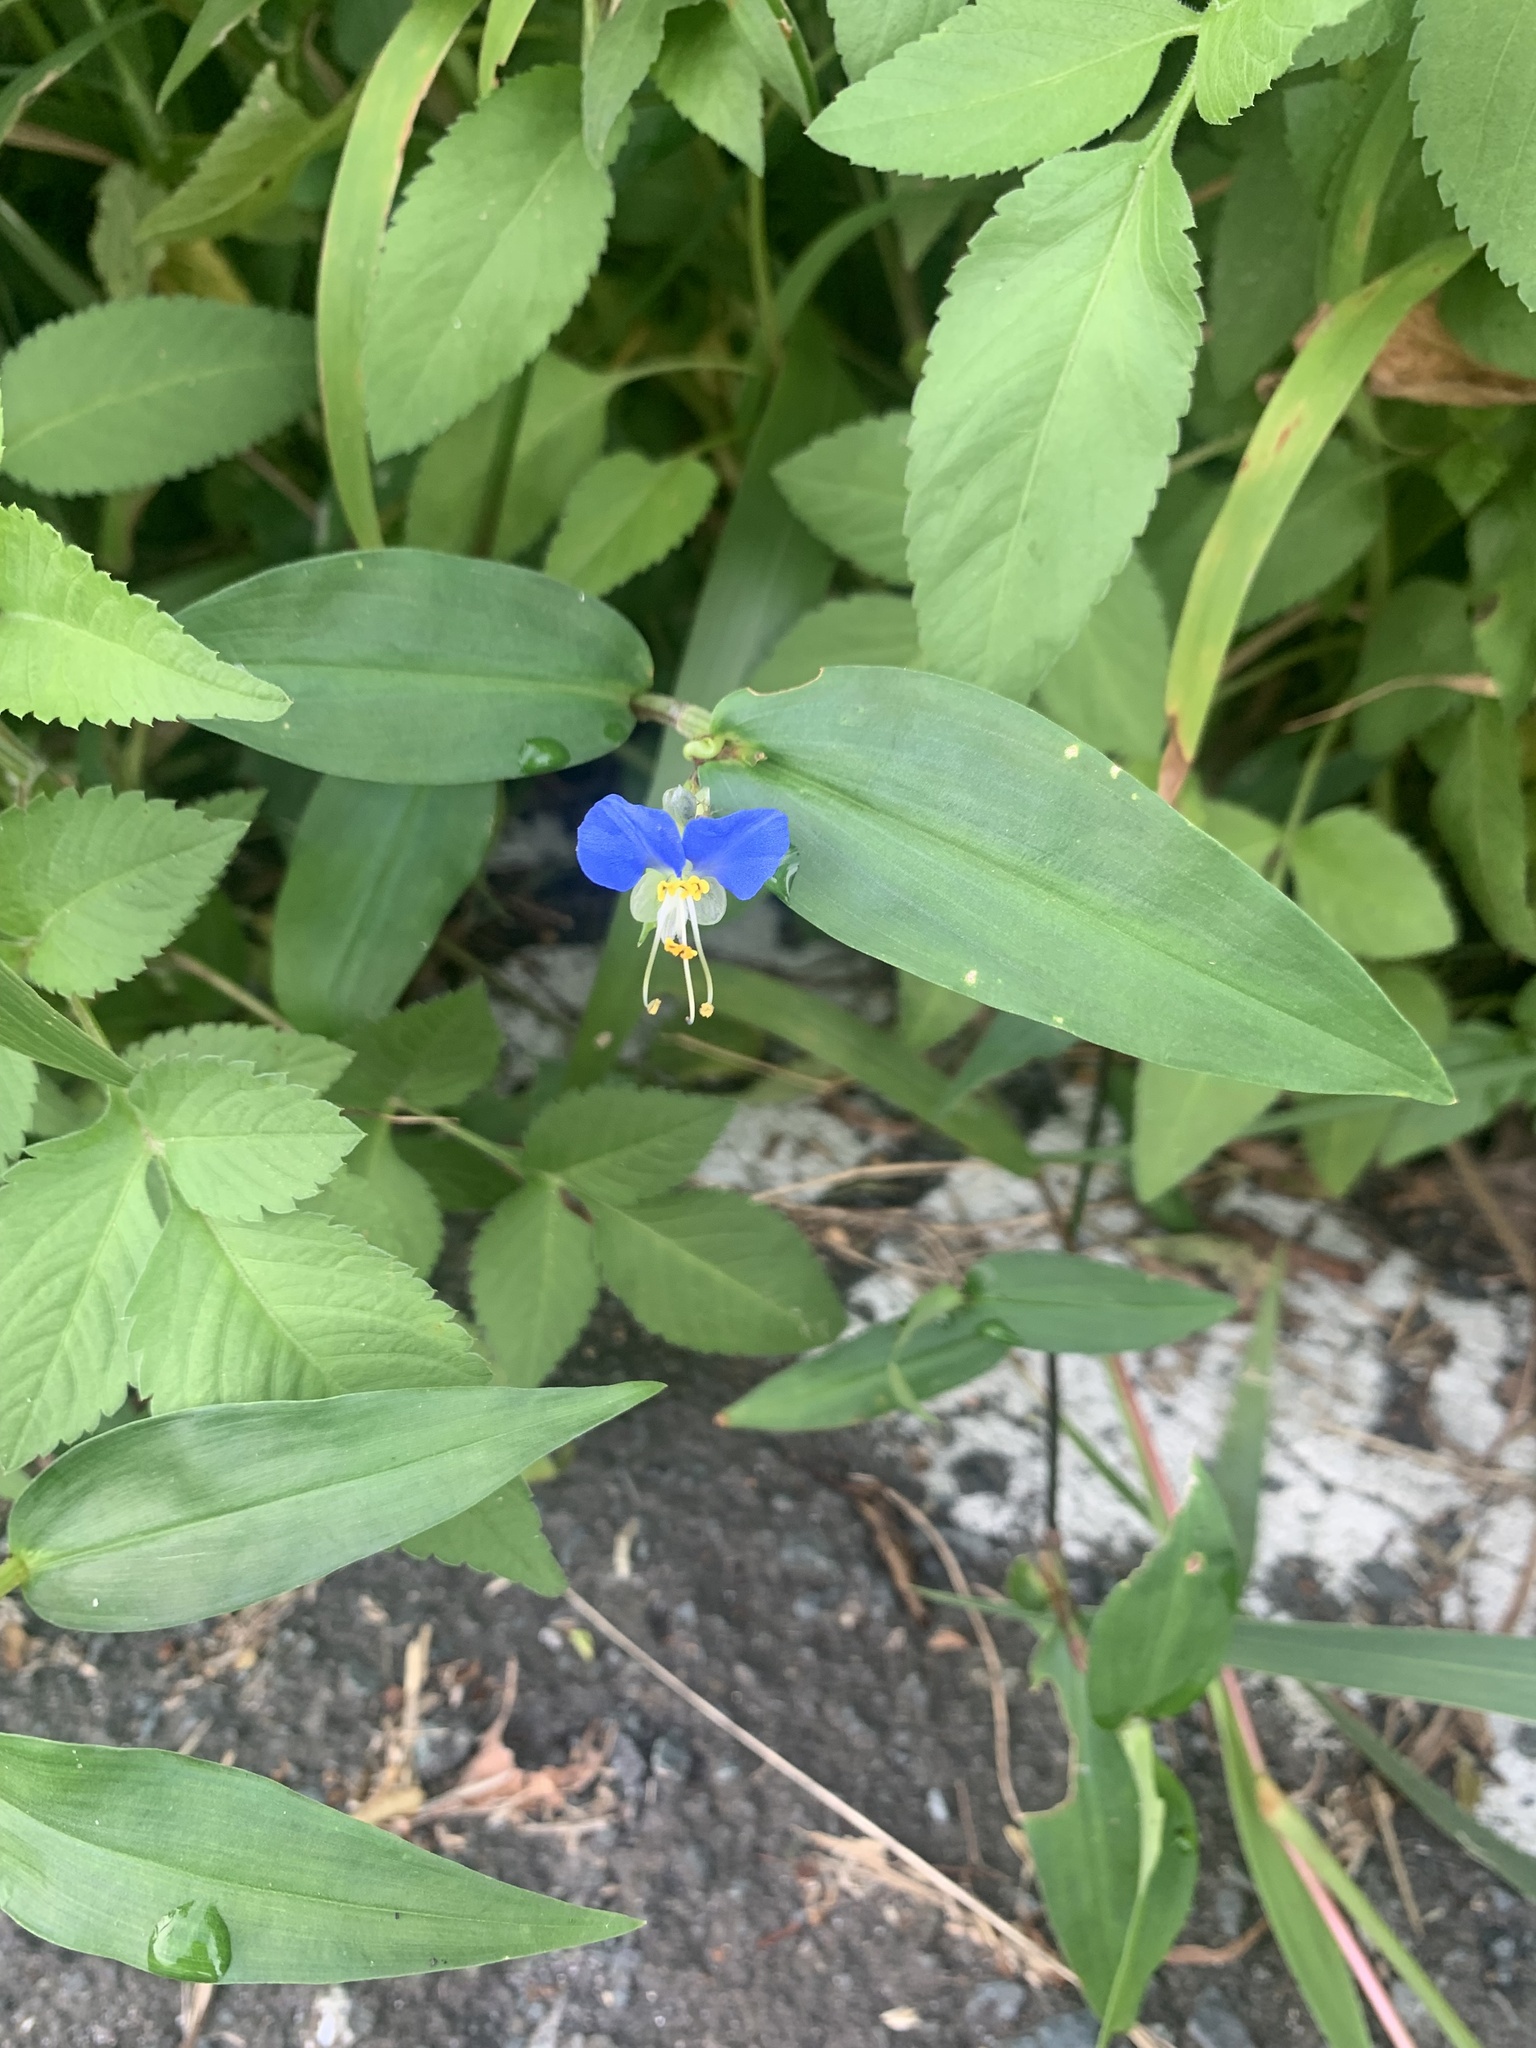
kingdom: Plantae
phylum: Tracheophyta
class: Liliopsida
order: Commelinales
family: Commelinaceae
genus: Commelina
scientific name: Commelina communis
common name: Asiatic dayflower
